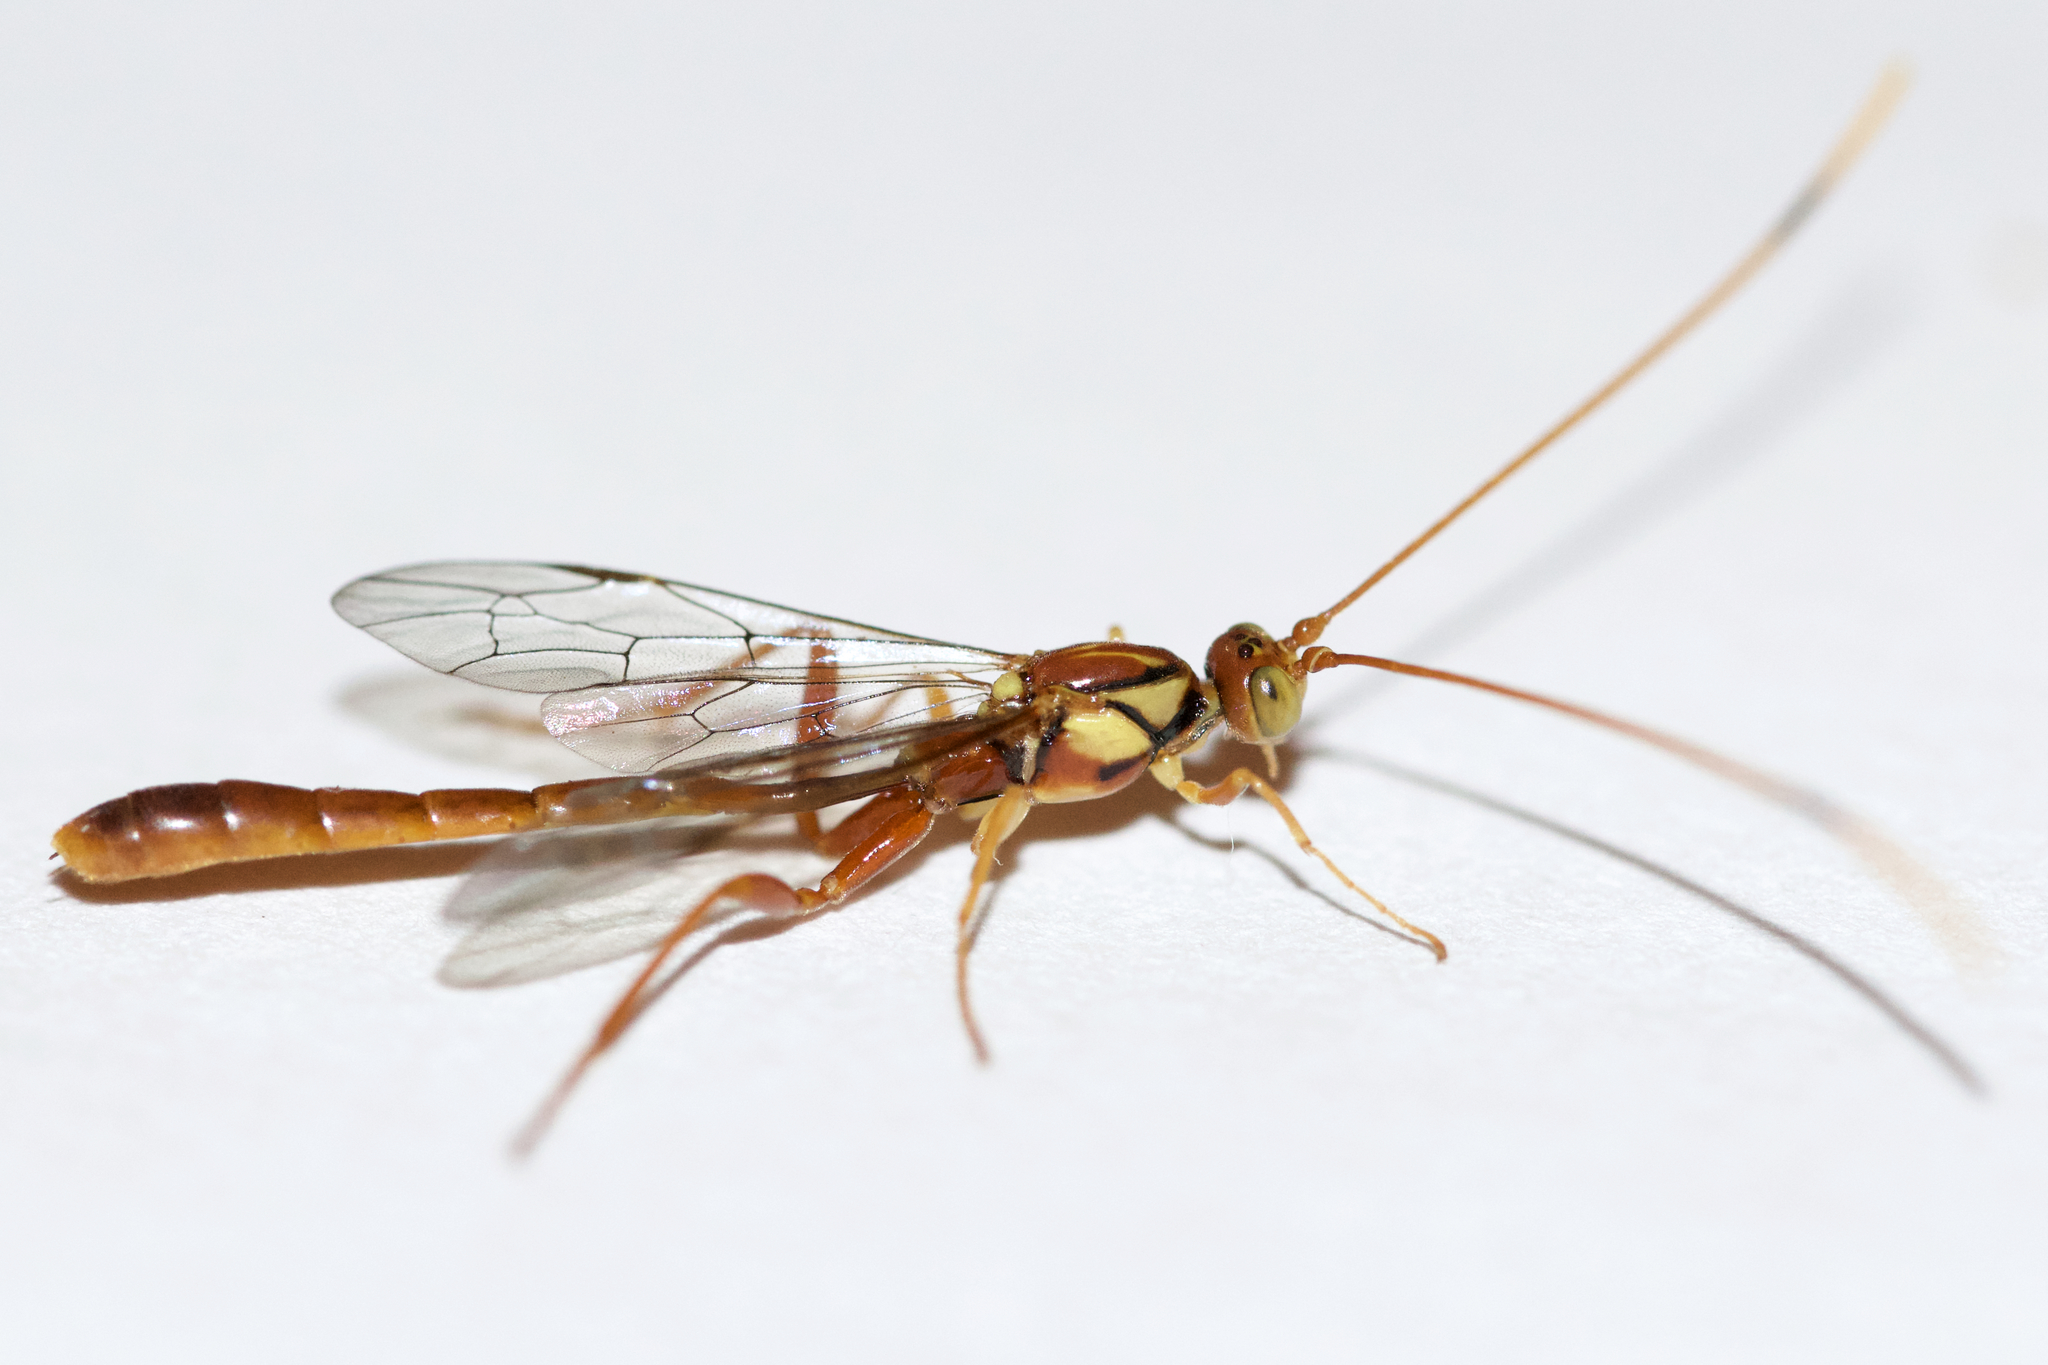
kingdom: Animalia
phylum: Arthropoda
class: Insecta
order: Hymenoptera
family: Ichneumonidae
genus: Grotea
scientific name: Grotea anguina
